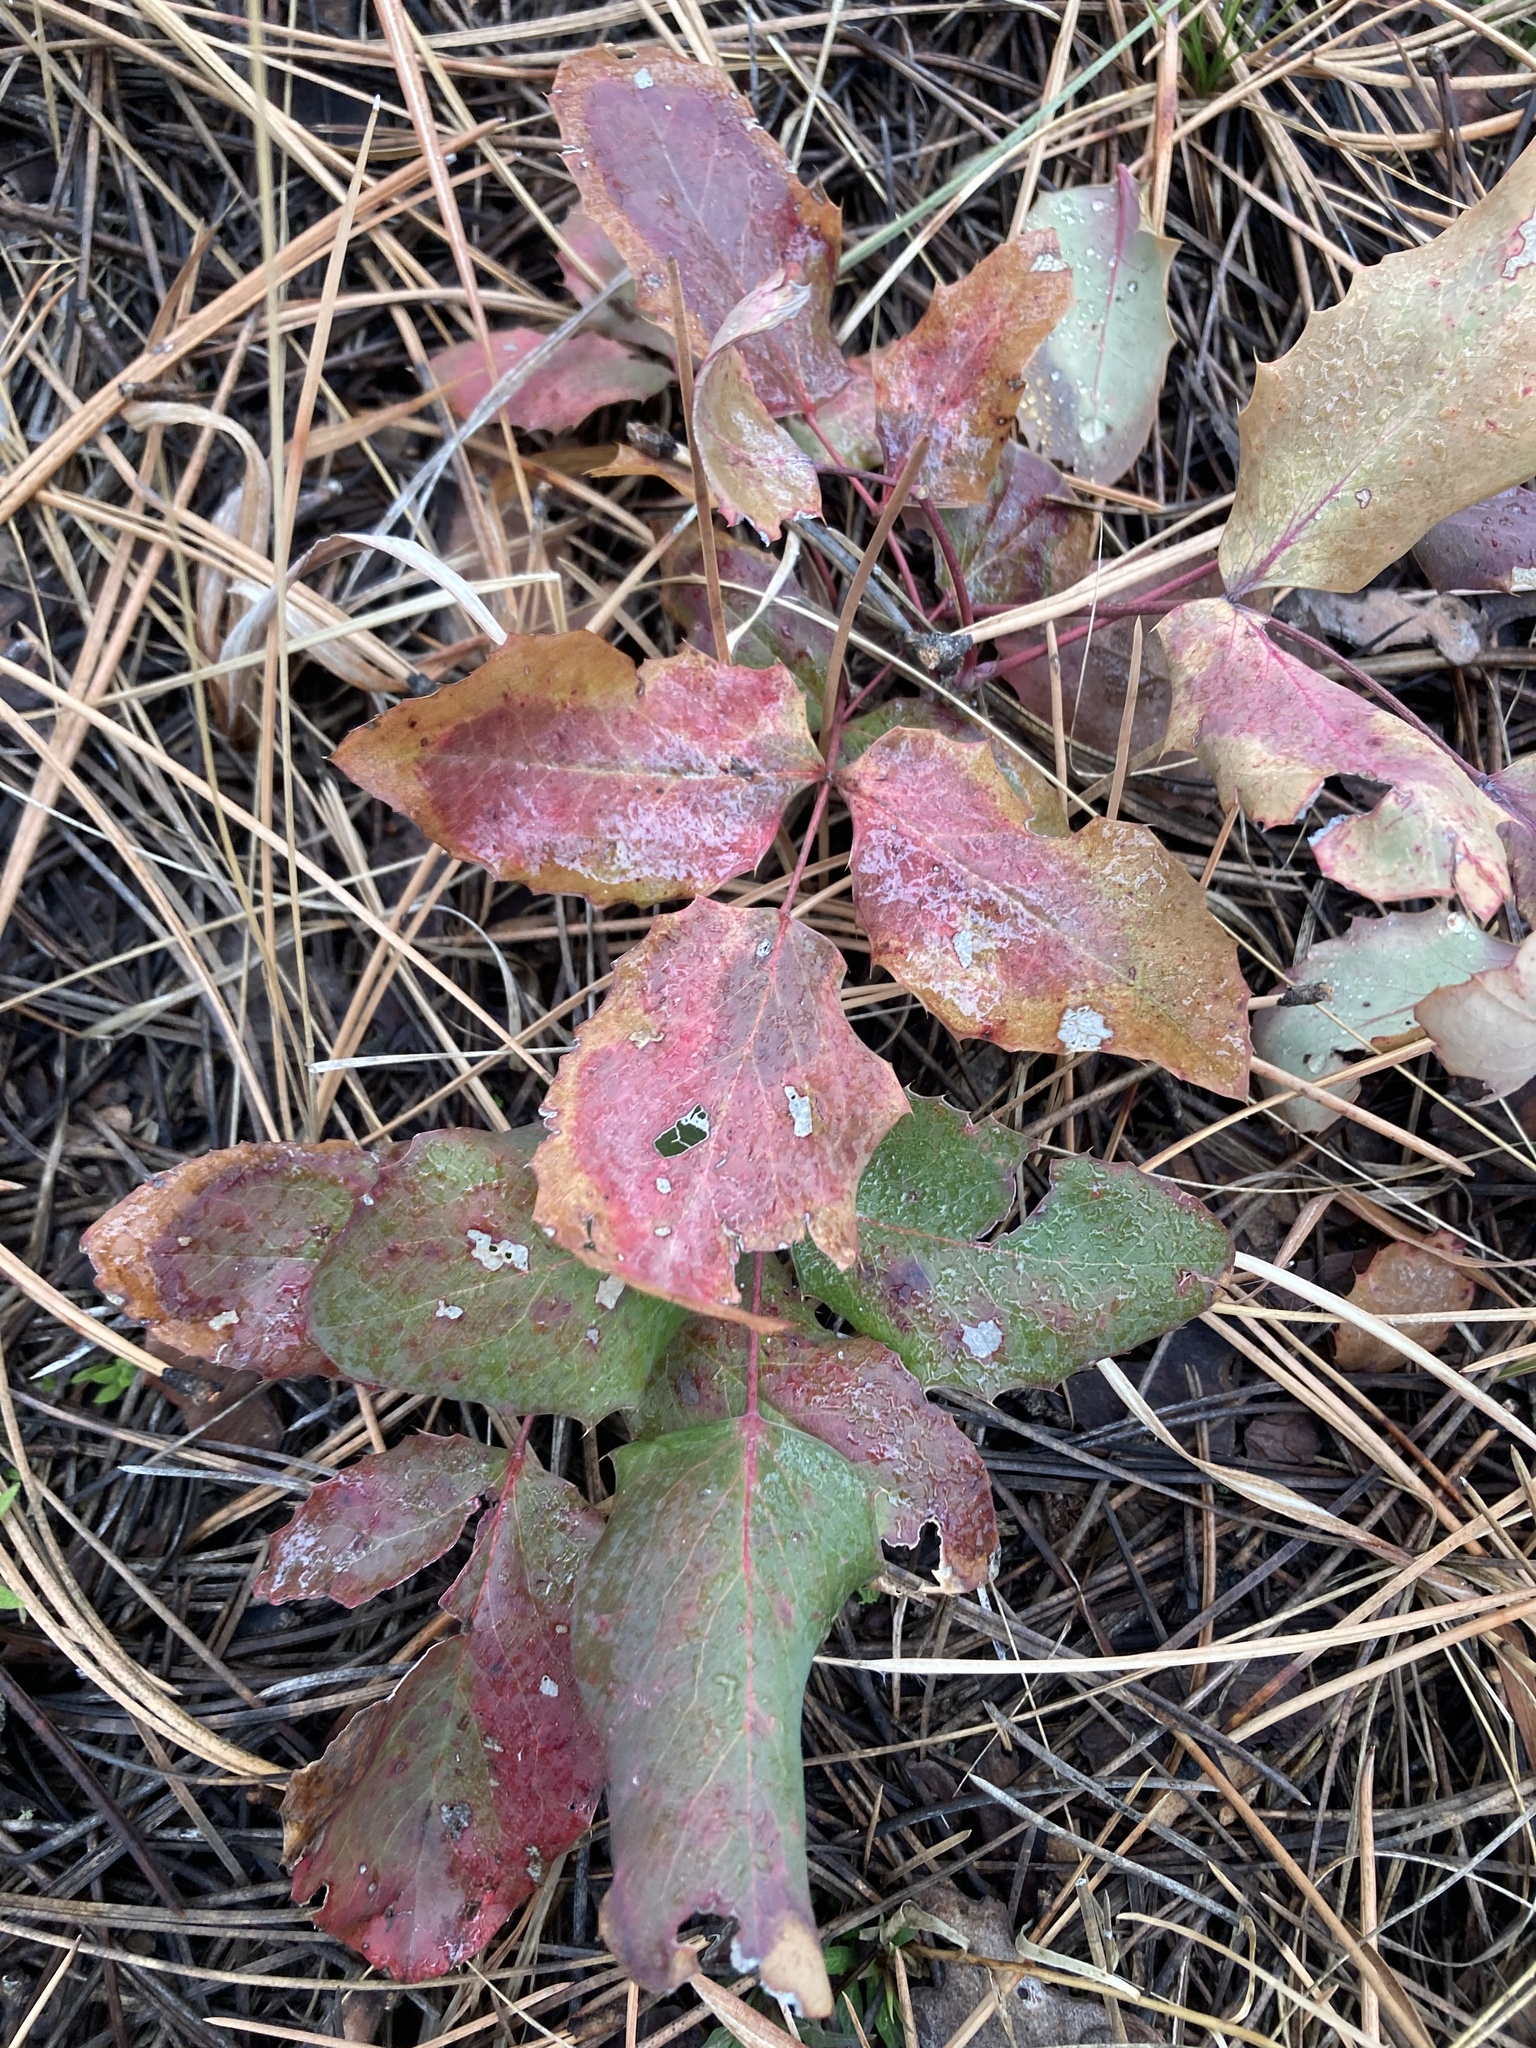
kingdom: Plantae
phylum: Tracheophyta
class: Magnoliopsida
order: Ranunculales
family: Berberidaceae
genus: Mahonia
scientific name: Mahonia repens
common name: Creeping oregon-grape
